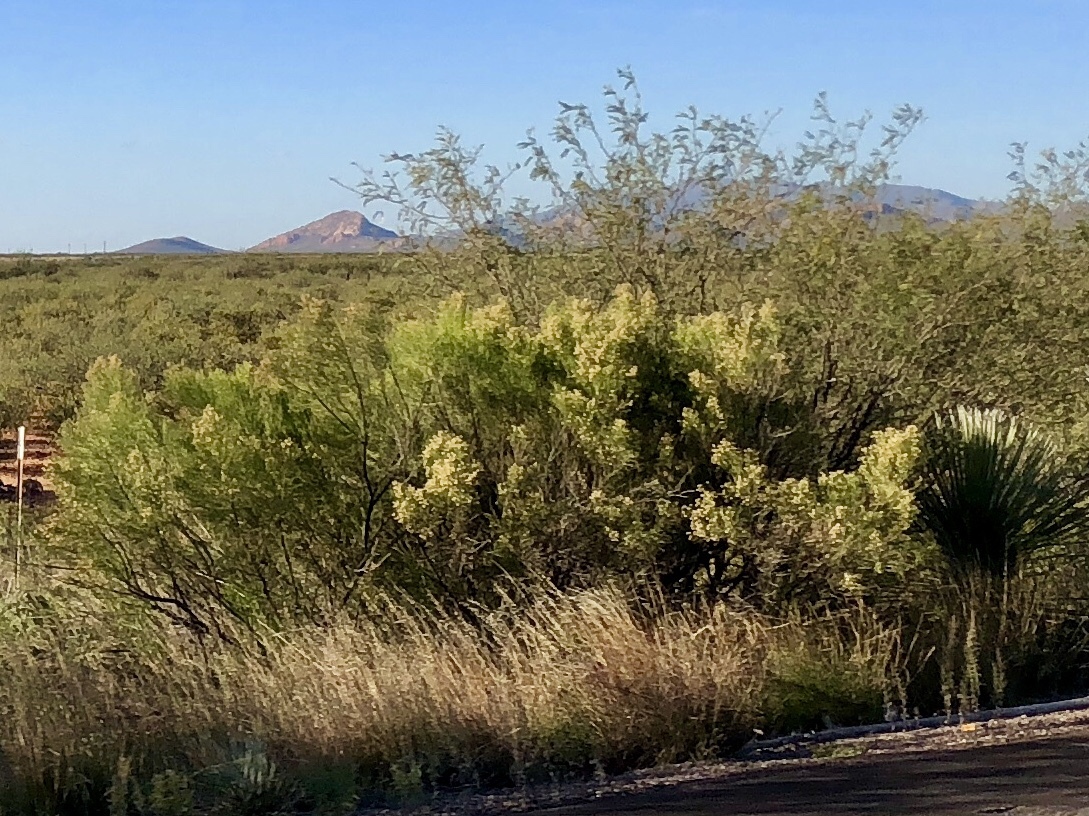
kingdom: Plantae
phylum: Tracheophyta
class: Magnoliopsida
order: Asterales
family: Asteraceae
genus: Baccharis
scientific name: Baccharis sarothroides
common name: Desert-broom
